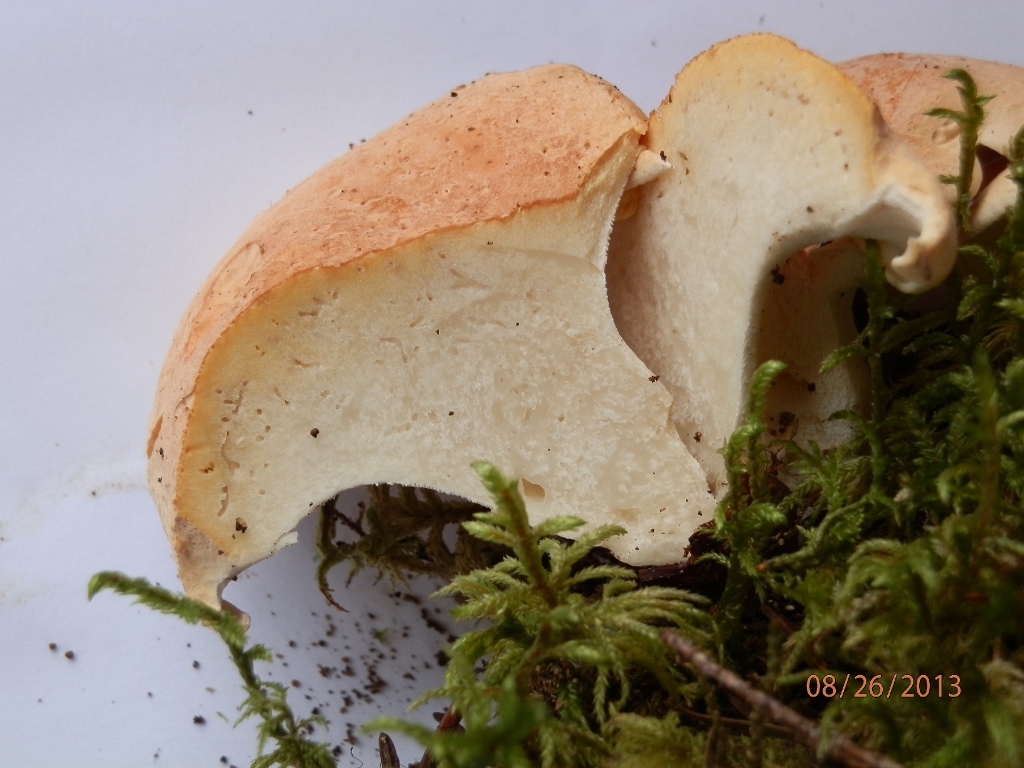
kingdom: Fungi
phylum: Basidiomycota
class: Agaricomycetes
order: Russulales
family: Albatrellaceae
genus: Albatrellopsis
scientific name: Albatrellopsis confluens
